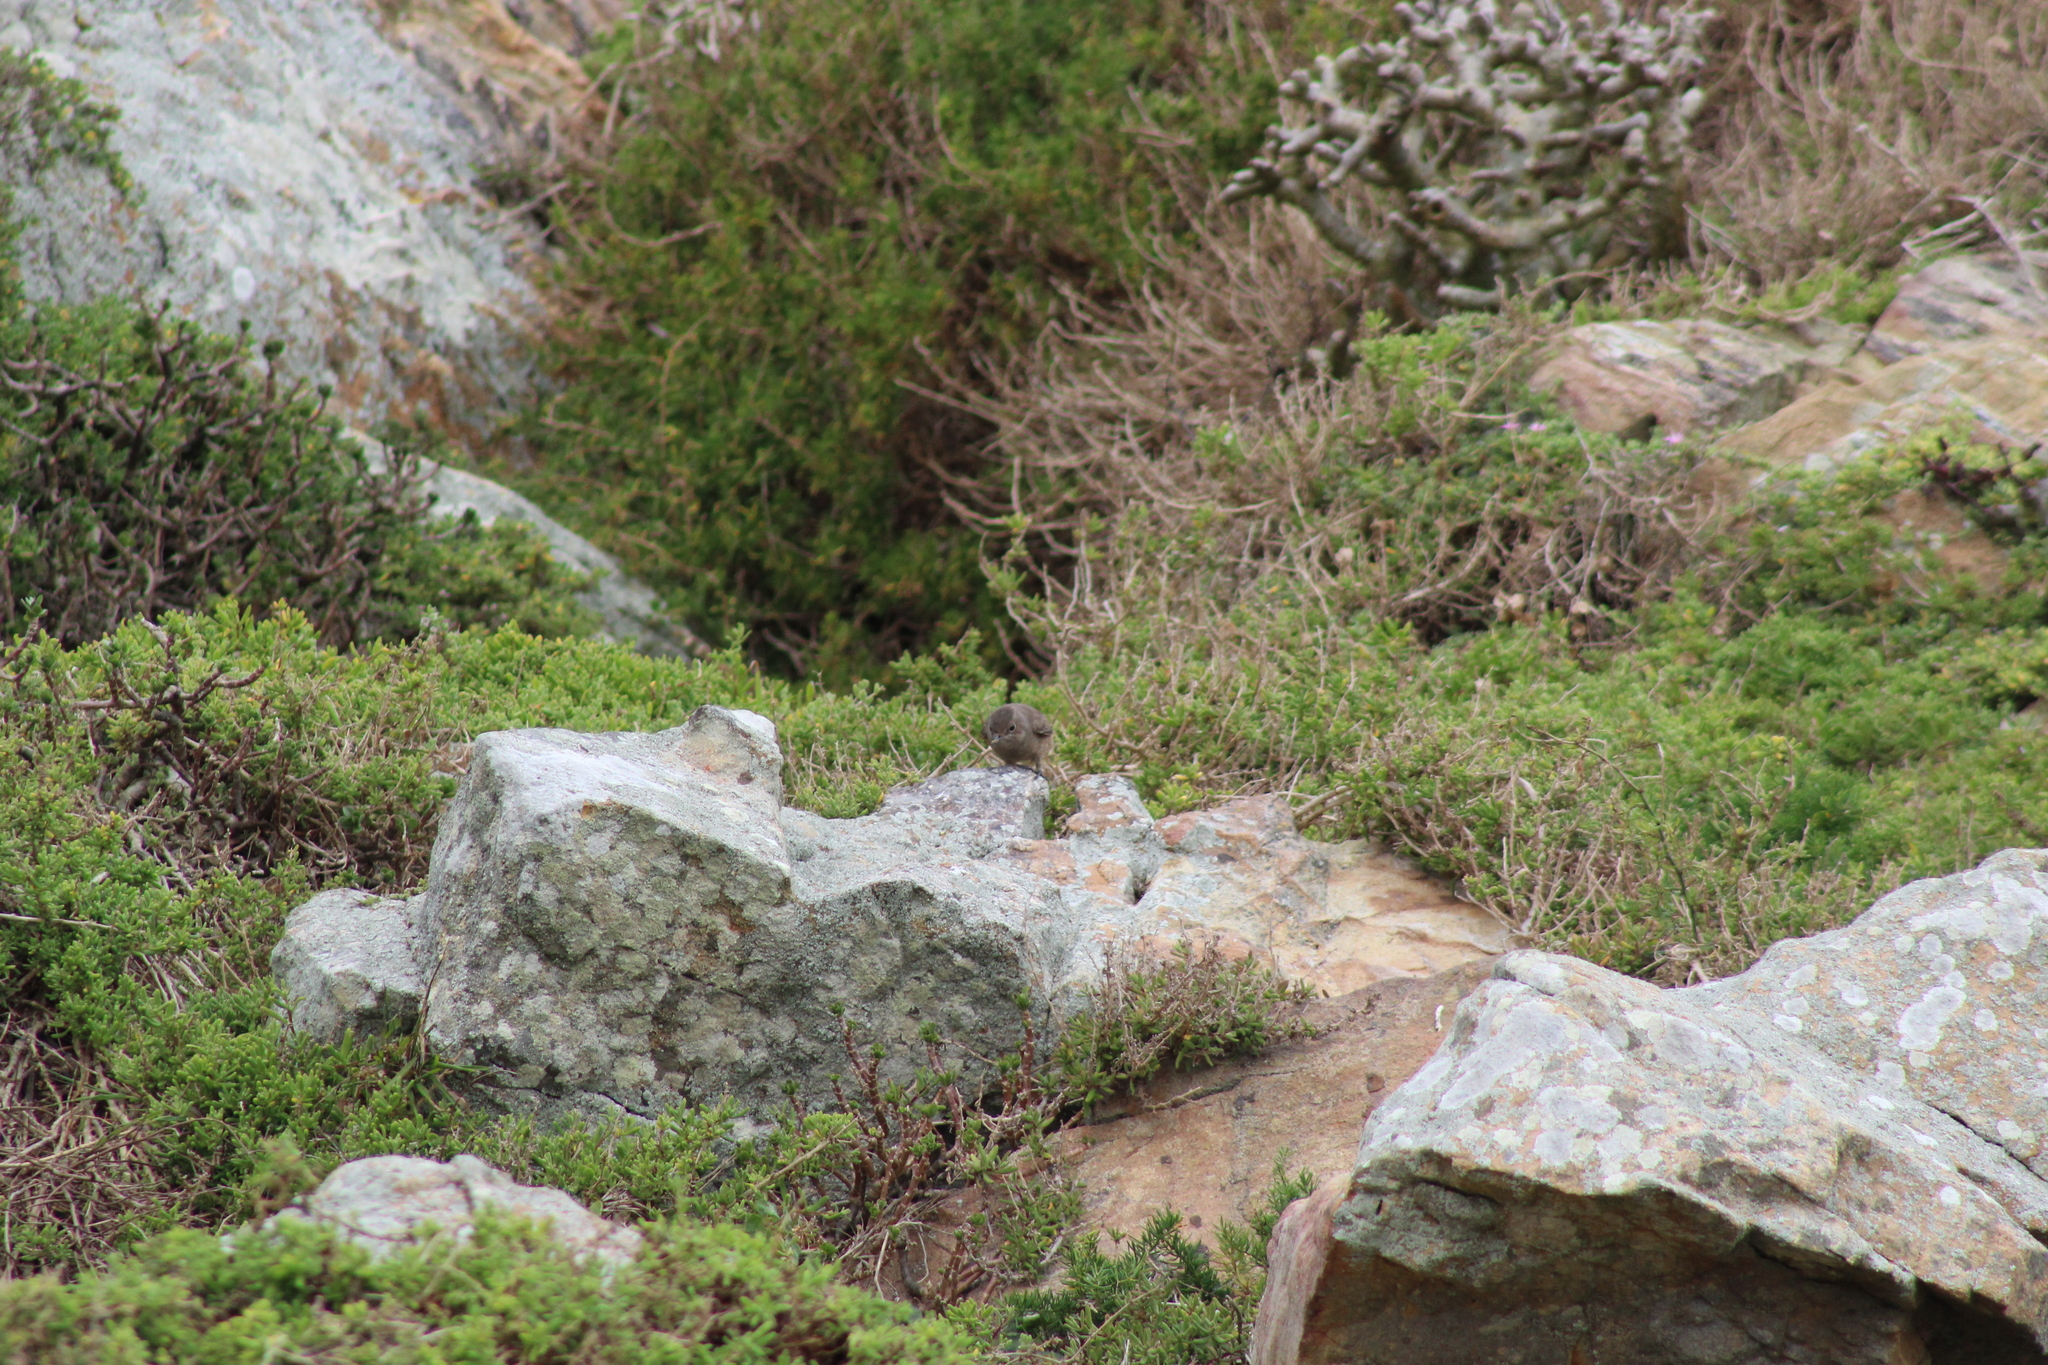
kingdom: Animalia
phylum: Chordata
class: Aves
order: Passeriformes
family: Muscicapidae
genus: Oenanthe
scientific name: Oenanthe familiaris
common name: Familiar chat
